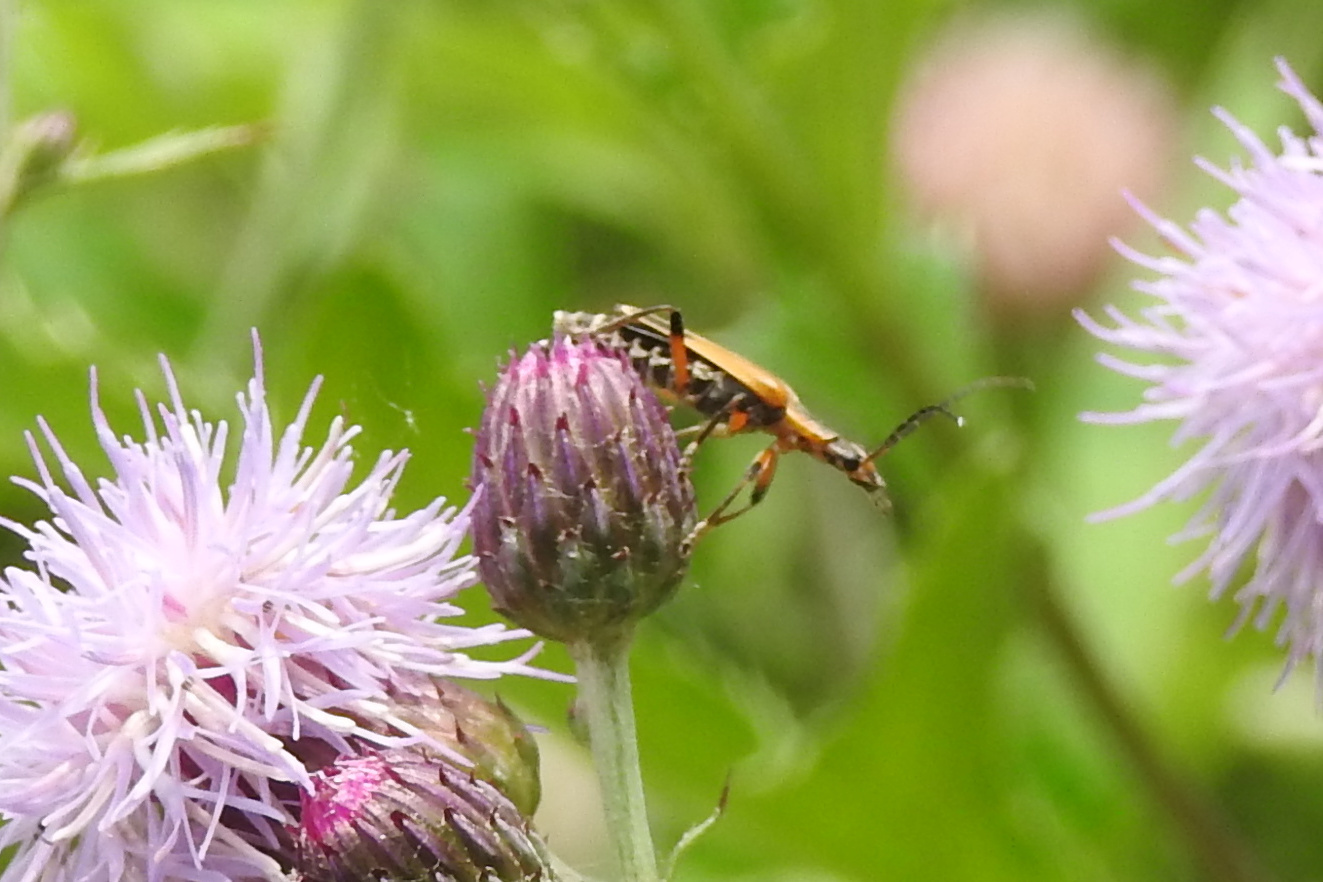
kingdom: Animalia
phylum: Arthropoda
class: Insecta
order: Coleoptera
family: Cantharidae
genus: Chauliognathus
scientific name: Chauliognathus marginatus
